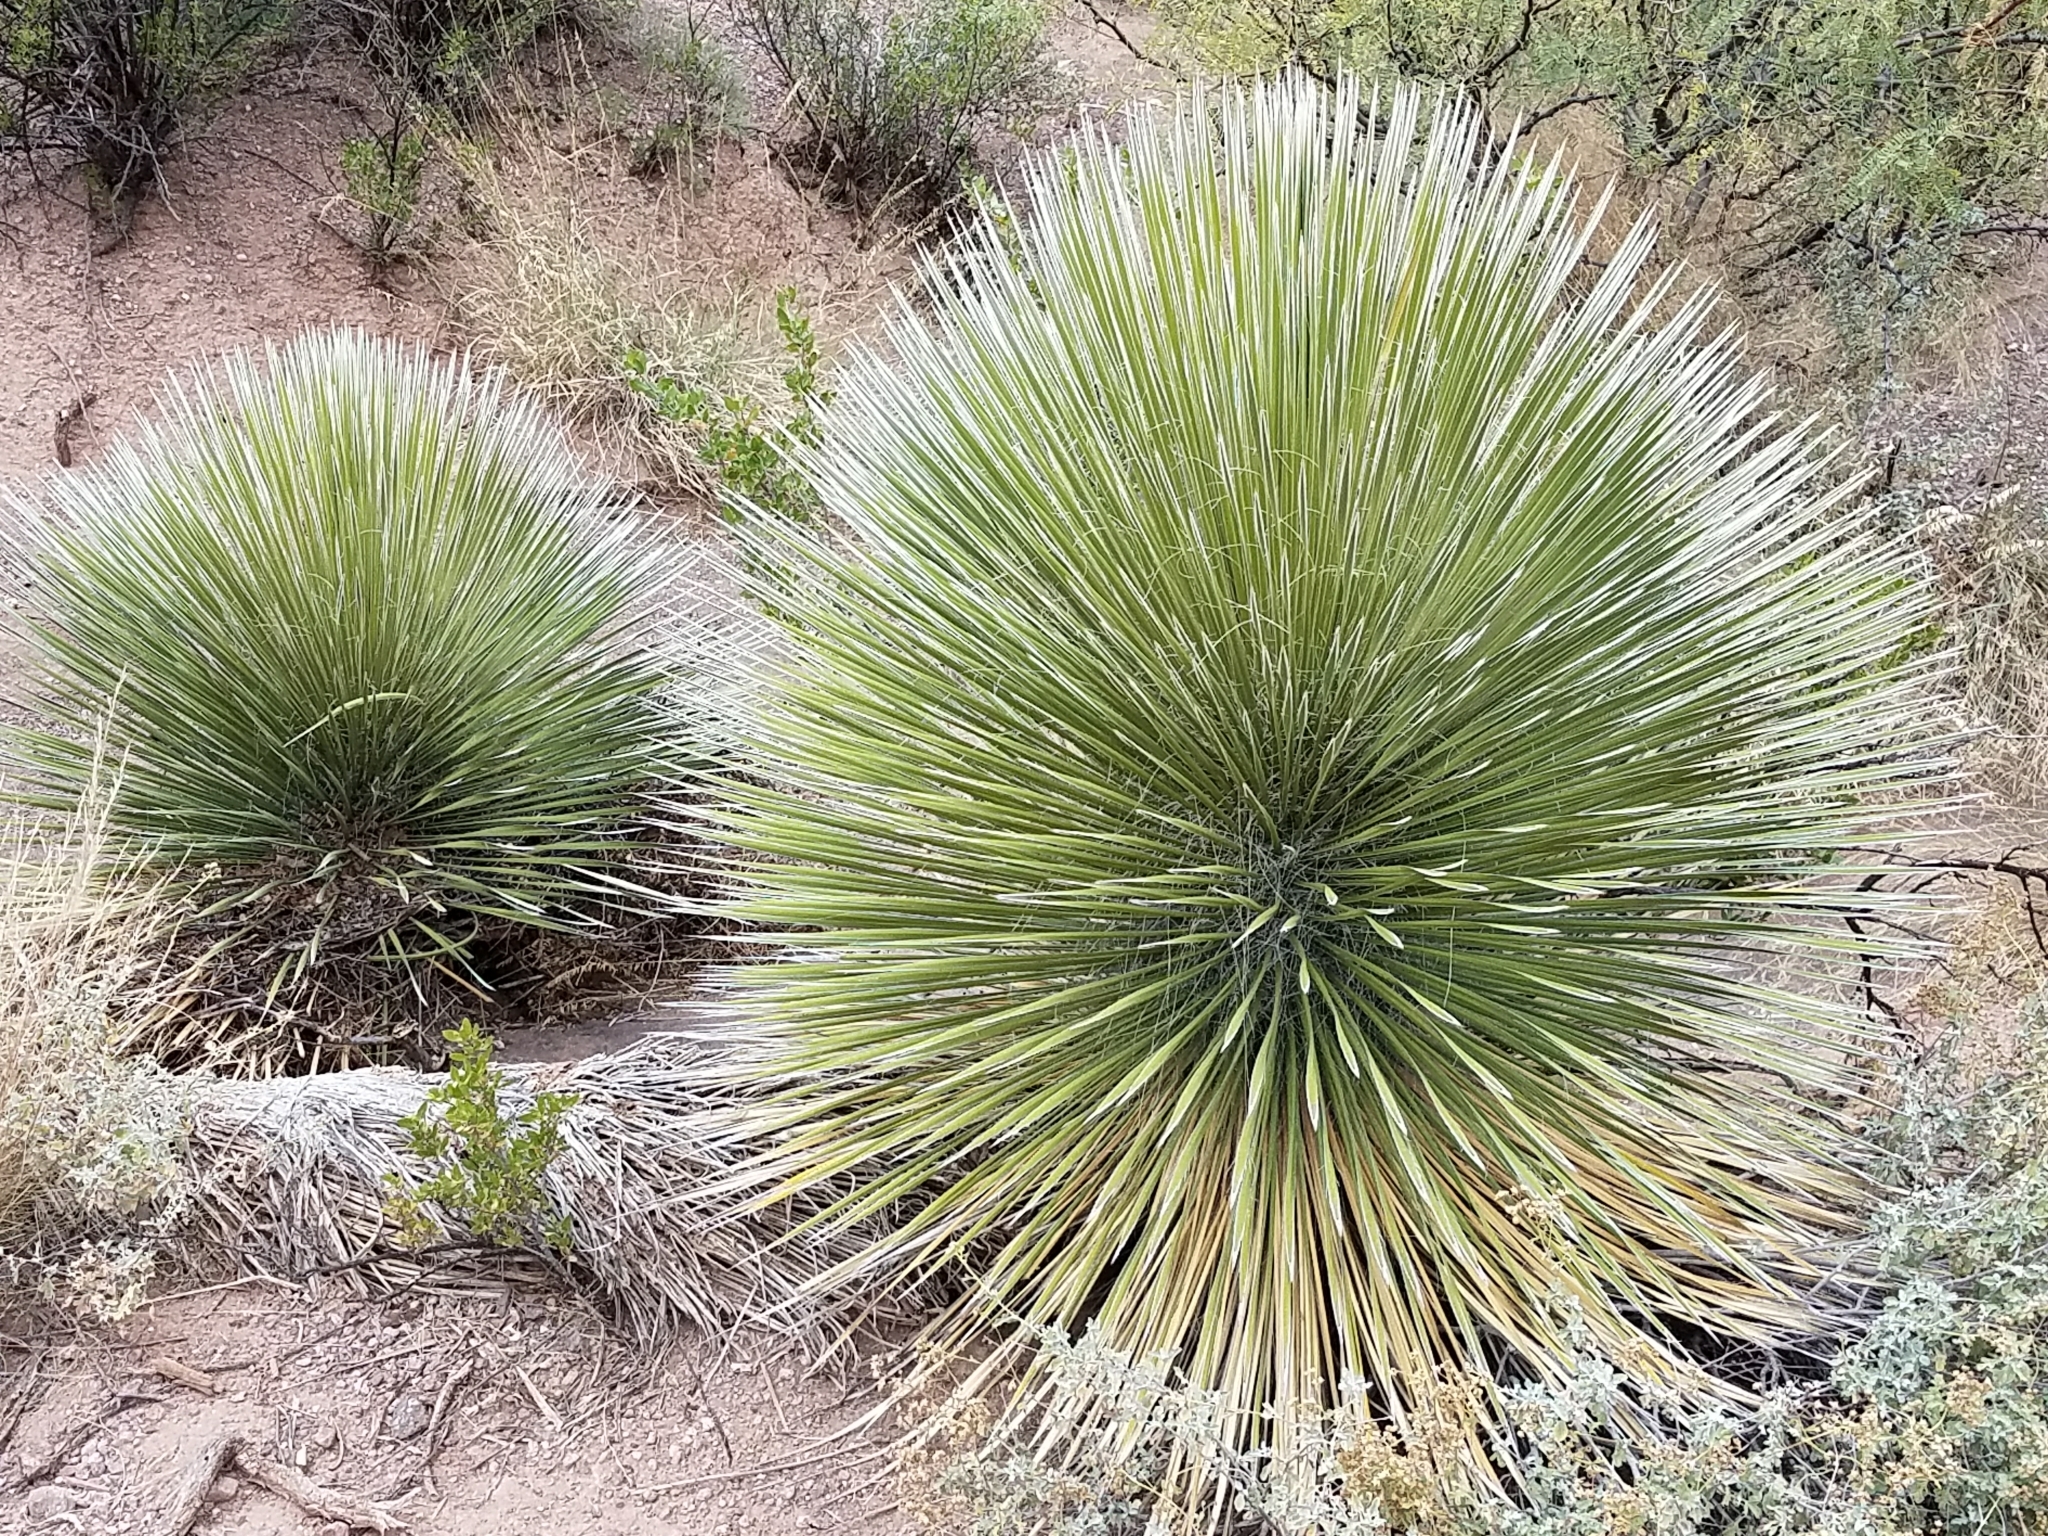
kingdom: Plantae
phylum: Tracheophyta
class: Liliopsida
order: Asparagales
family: Asparagaceae
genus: Yucca
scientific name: Yucca elata
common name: Palmella
